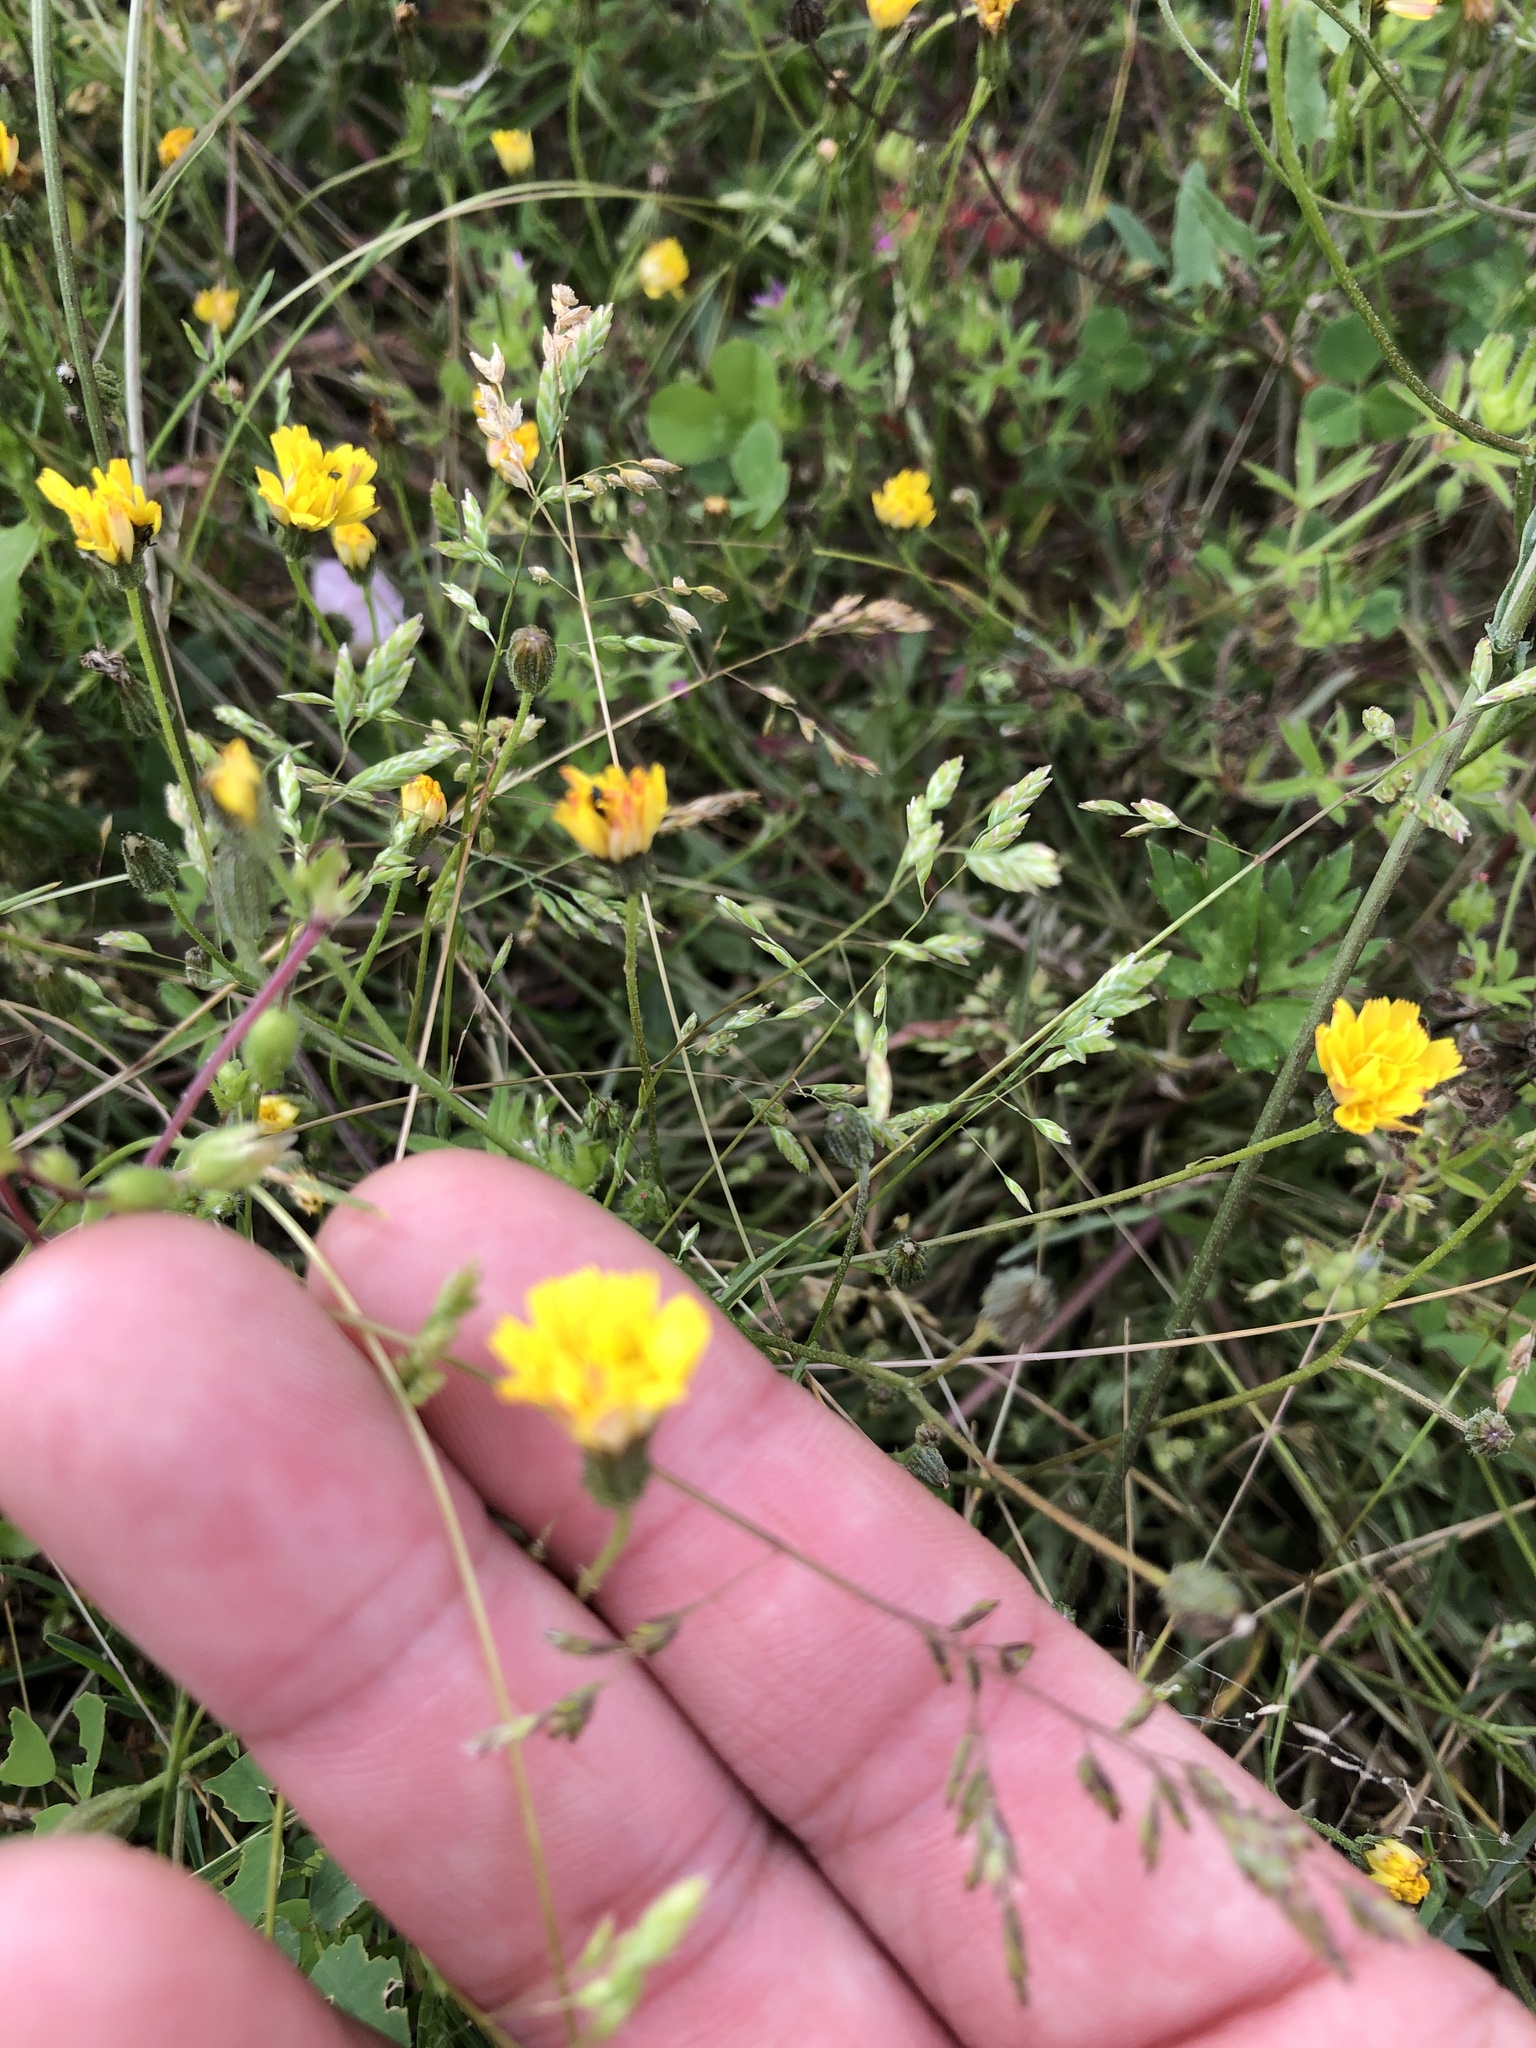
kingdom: Plantae
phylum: Tracheophyta
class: Magnoliopsida
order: Asterales
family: Asteraceae
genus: Crepis
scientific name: Crepis capillaris
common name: Smooth hawksbeard
